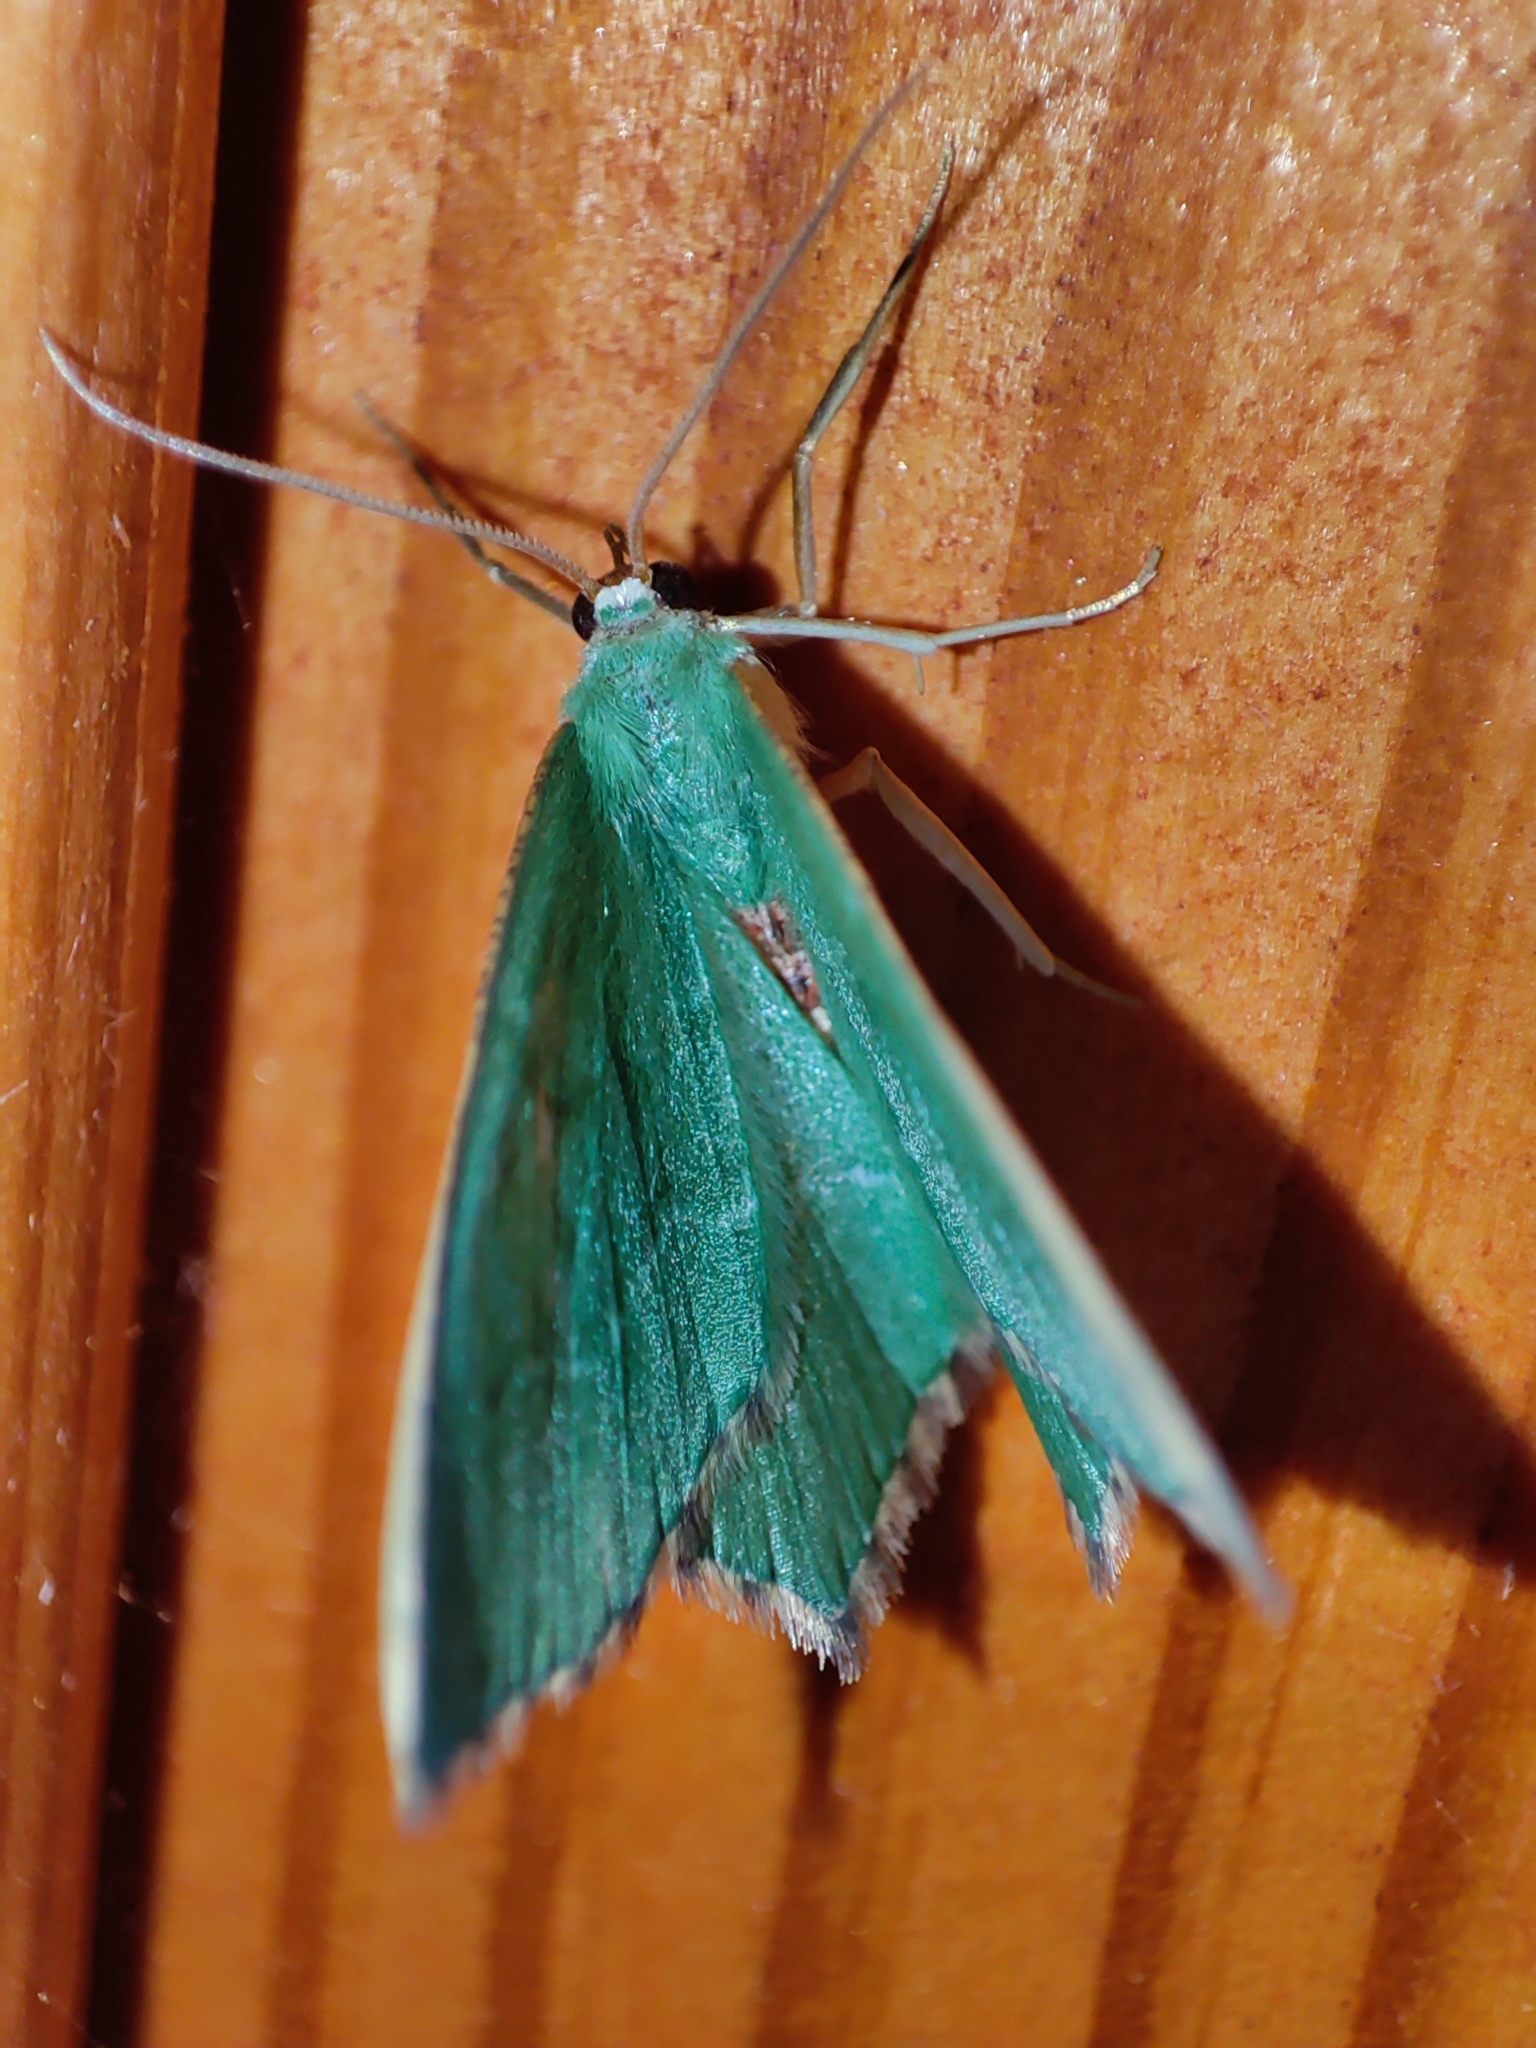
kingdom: Animalia
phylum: Arthropoda
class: Insecta
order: Lepidoptera
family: Geometridae
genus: Hemithea
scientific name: Hemithea aestivaria
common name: Common emerald
